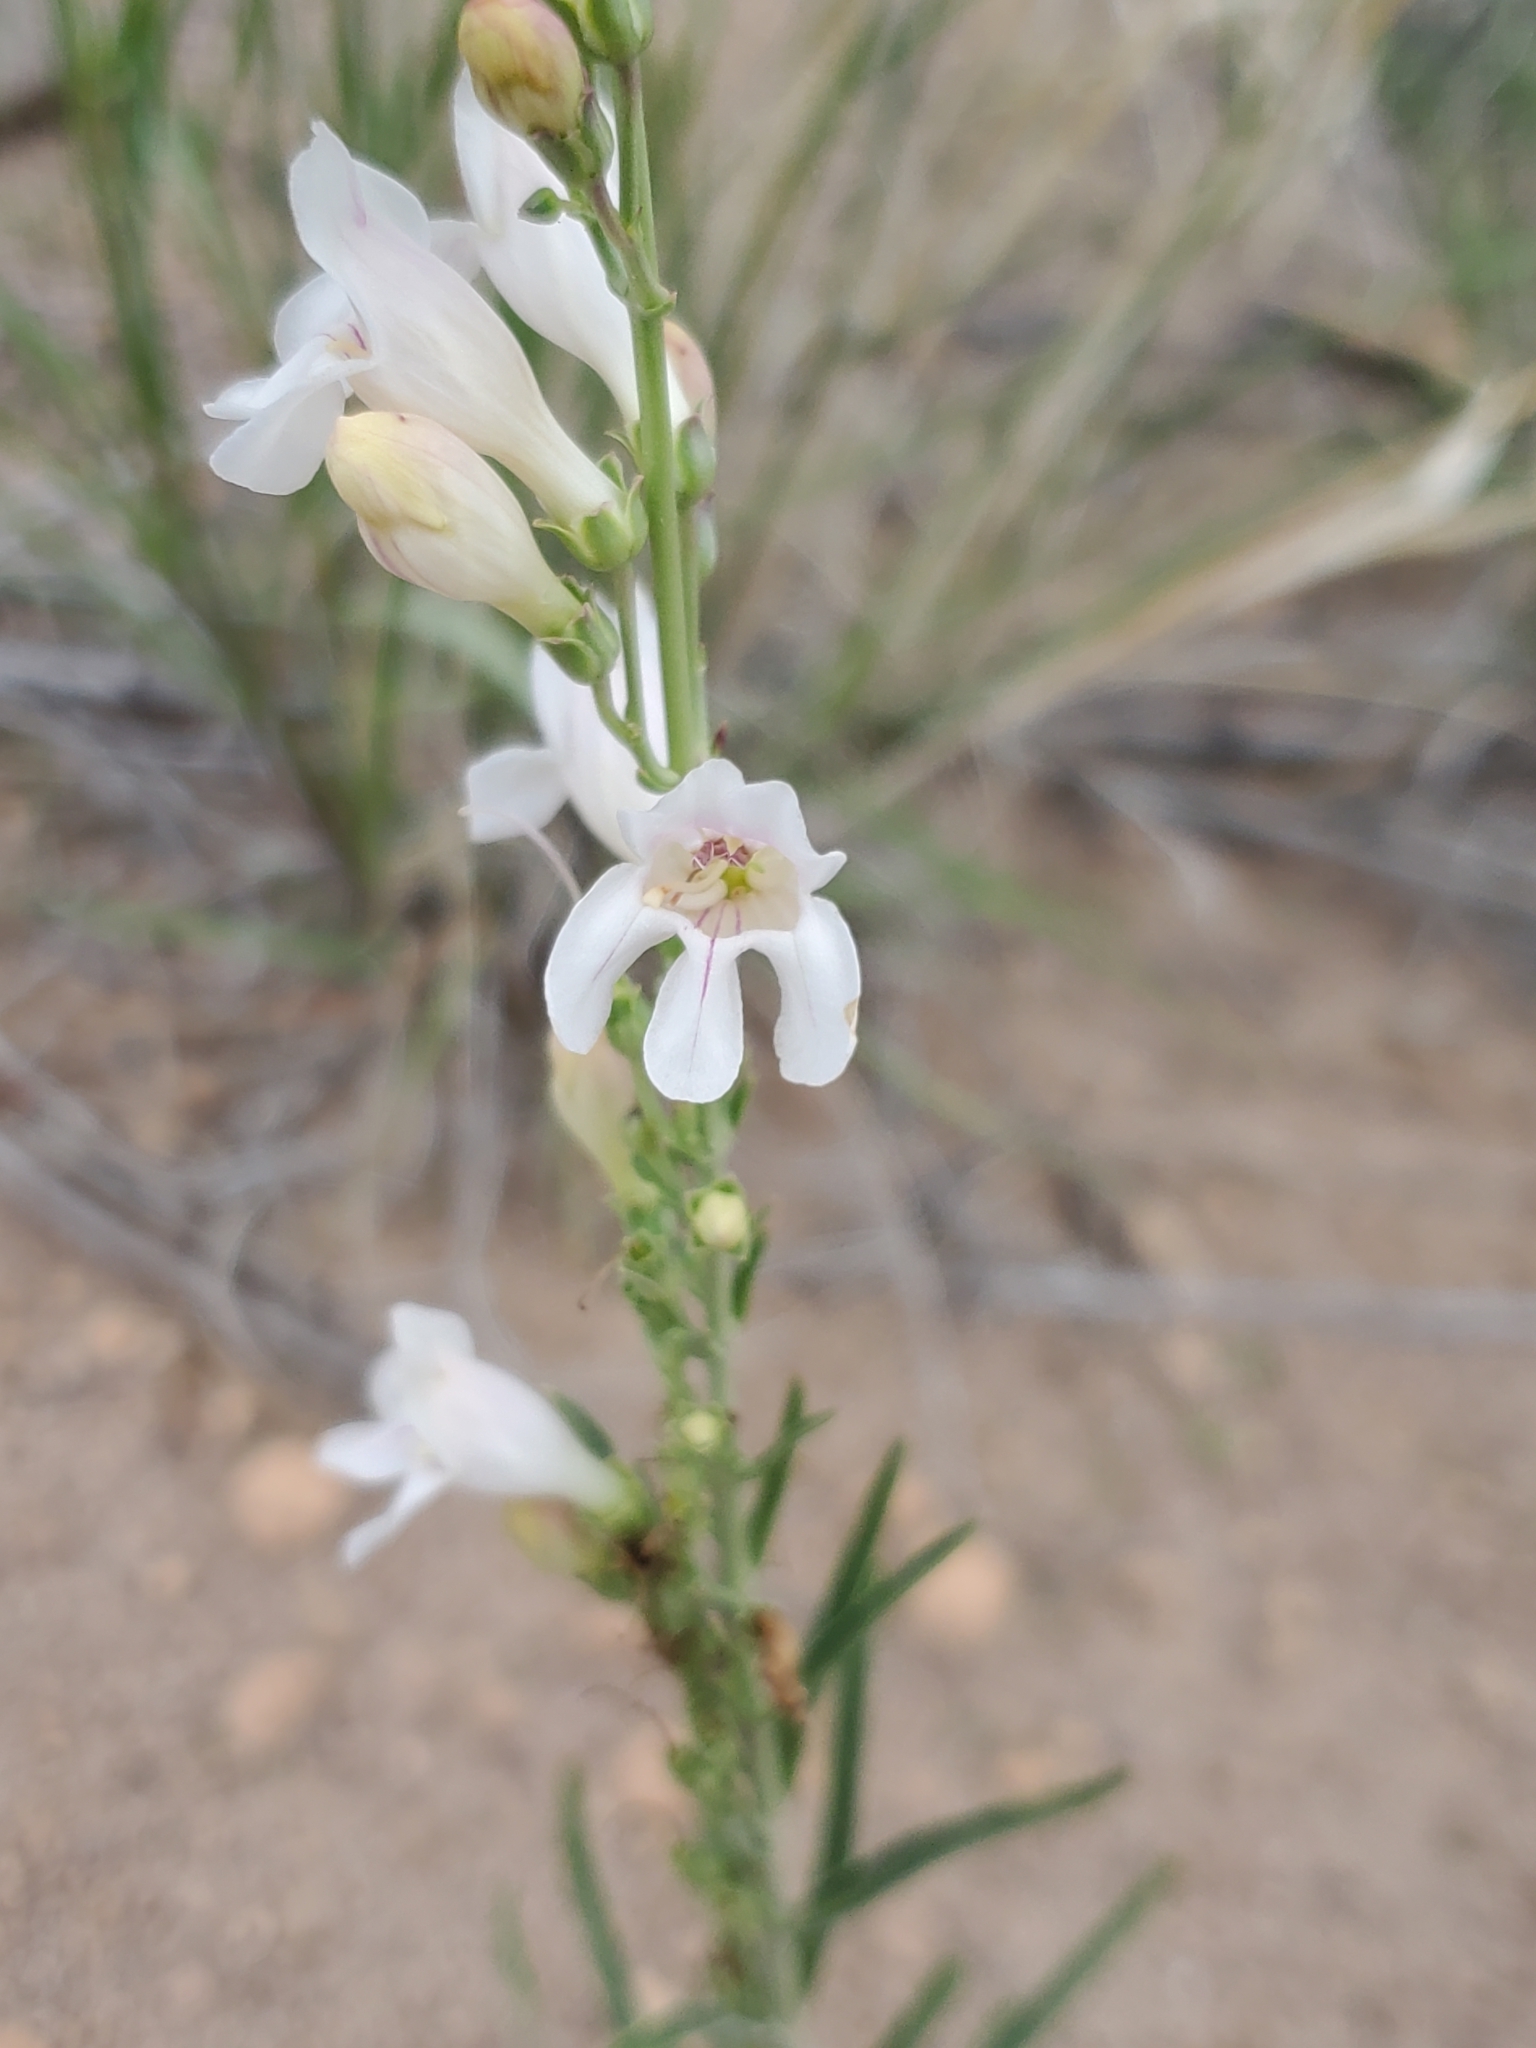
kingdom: Plantae
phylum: Tracheophyta
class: Magnoliopsida
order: Lamiales
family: Plantaginaceae
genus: Penstemon
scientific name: Penstemon virgatus
